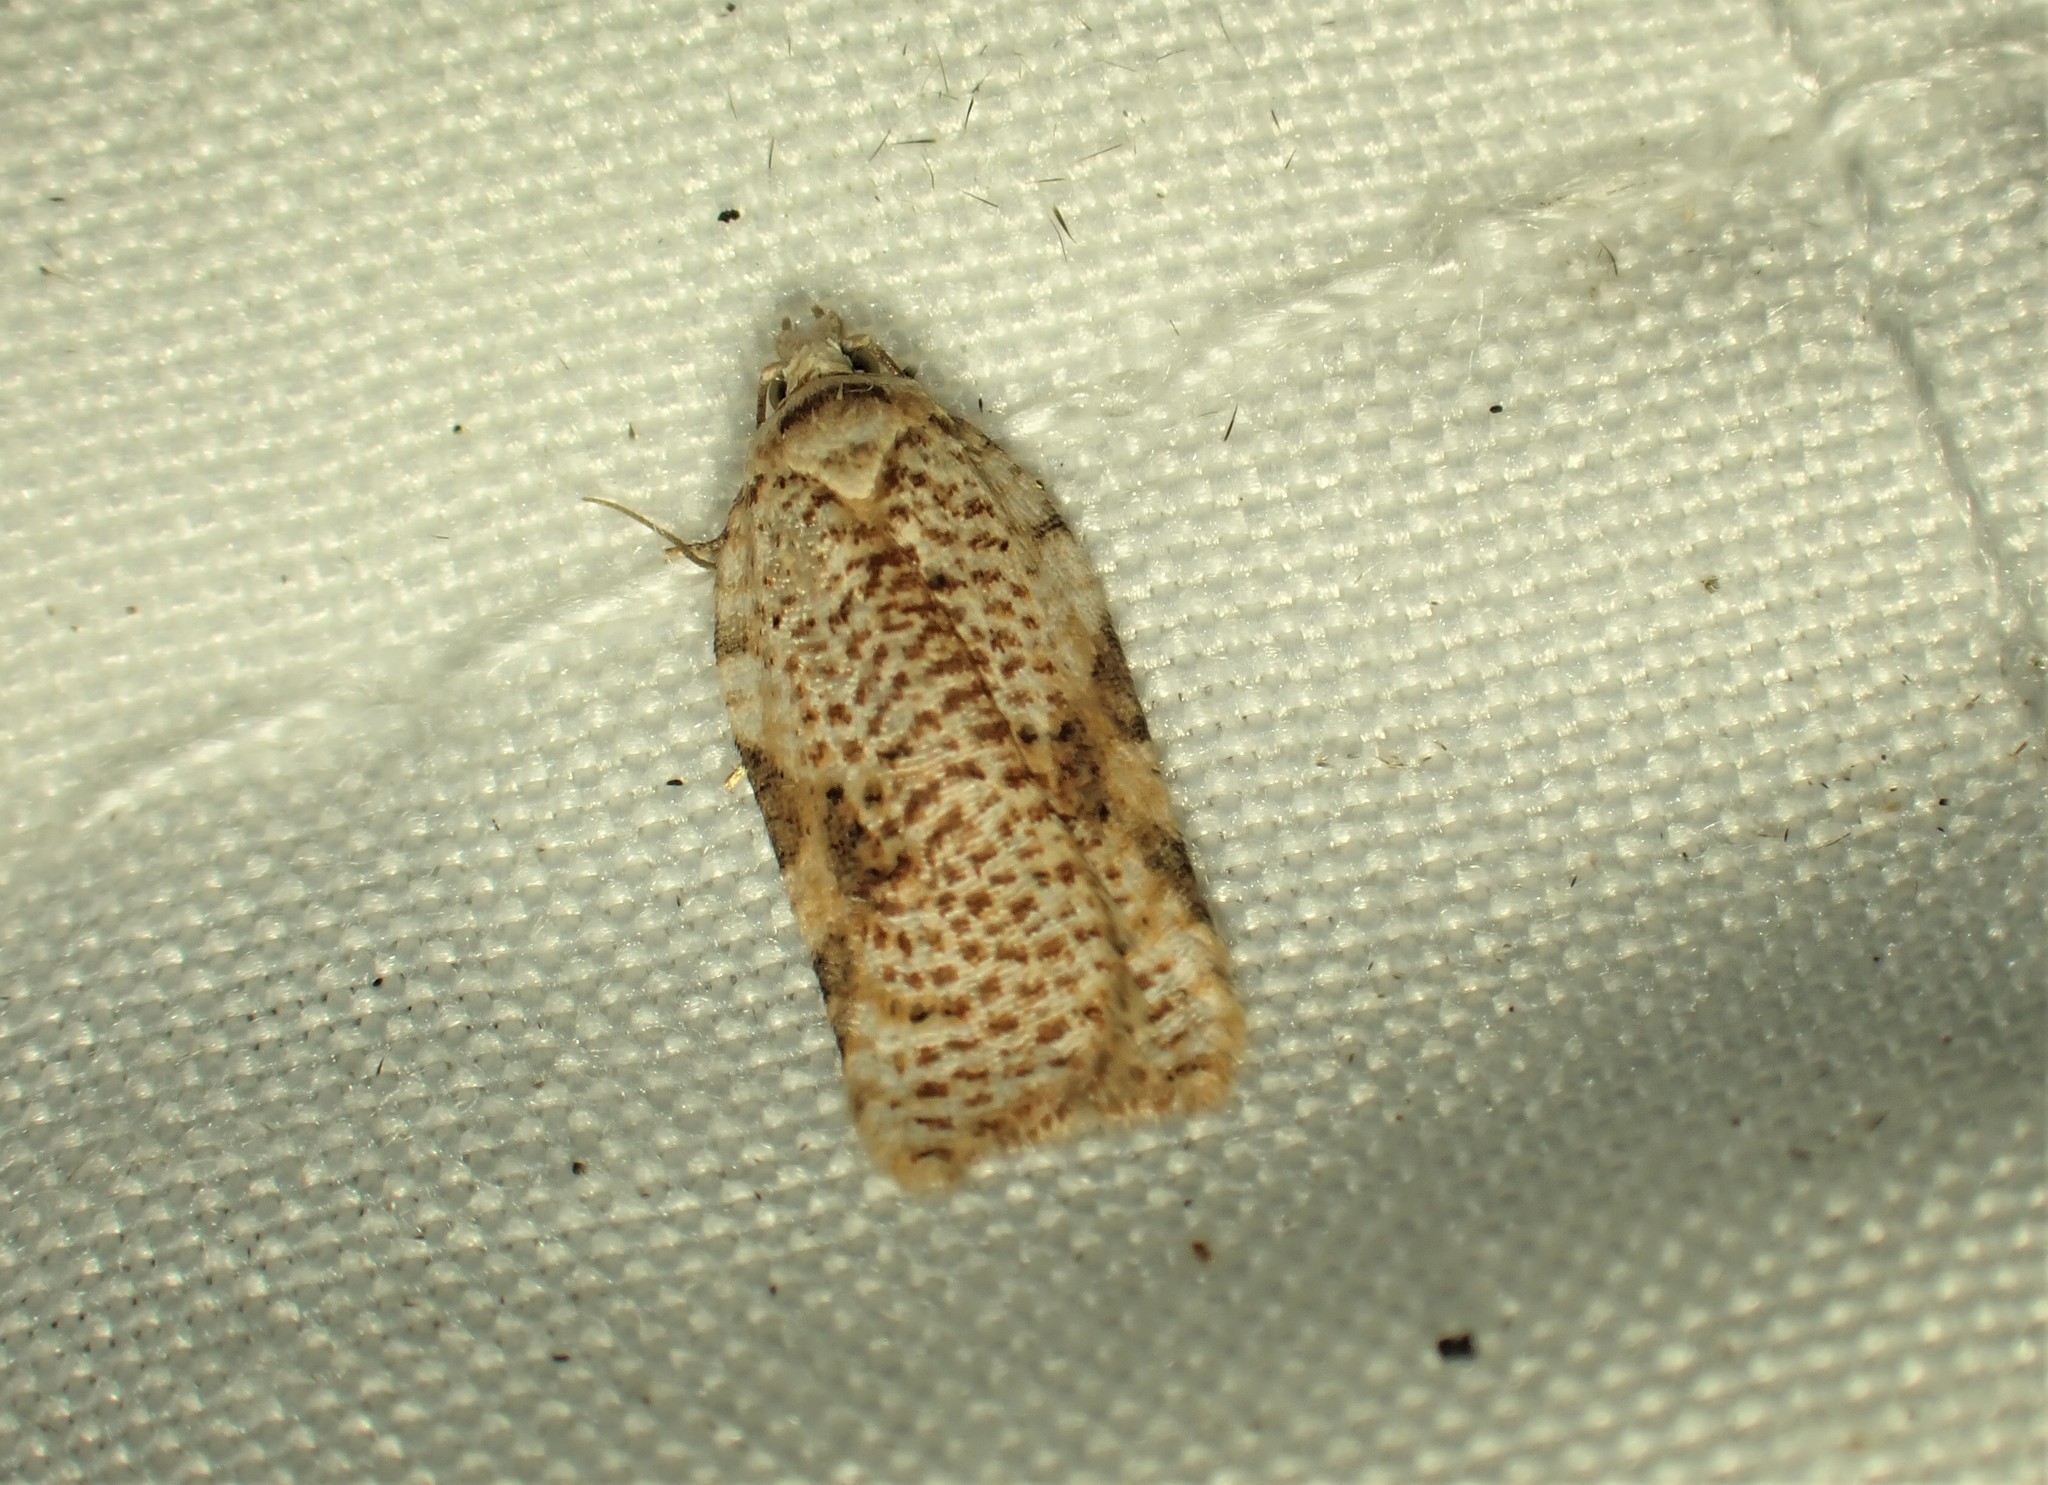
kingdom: Animalia
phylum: Arthropoda
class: Insecta
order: Lepidoptera
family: Tortricidae
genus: Acleris
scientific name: Acleris cervinana
